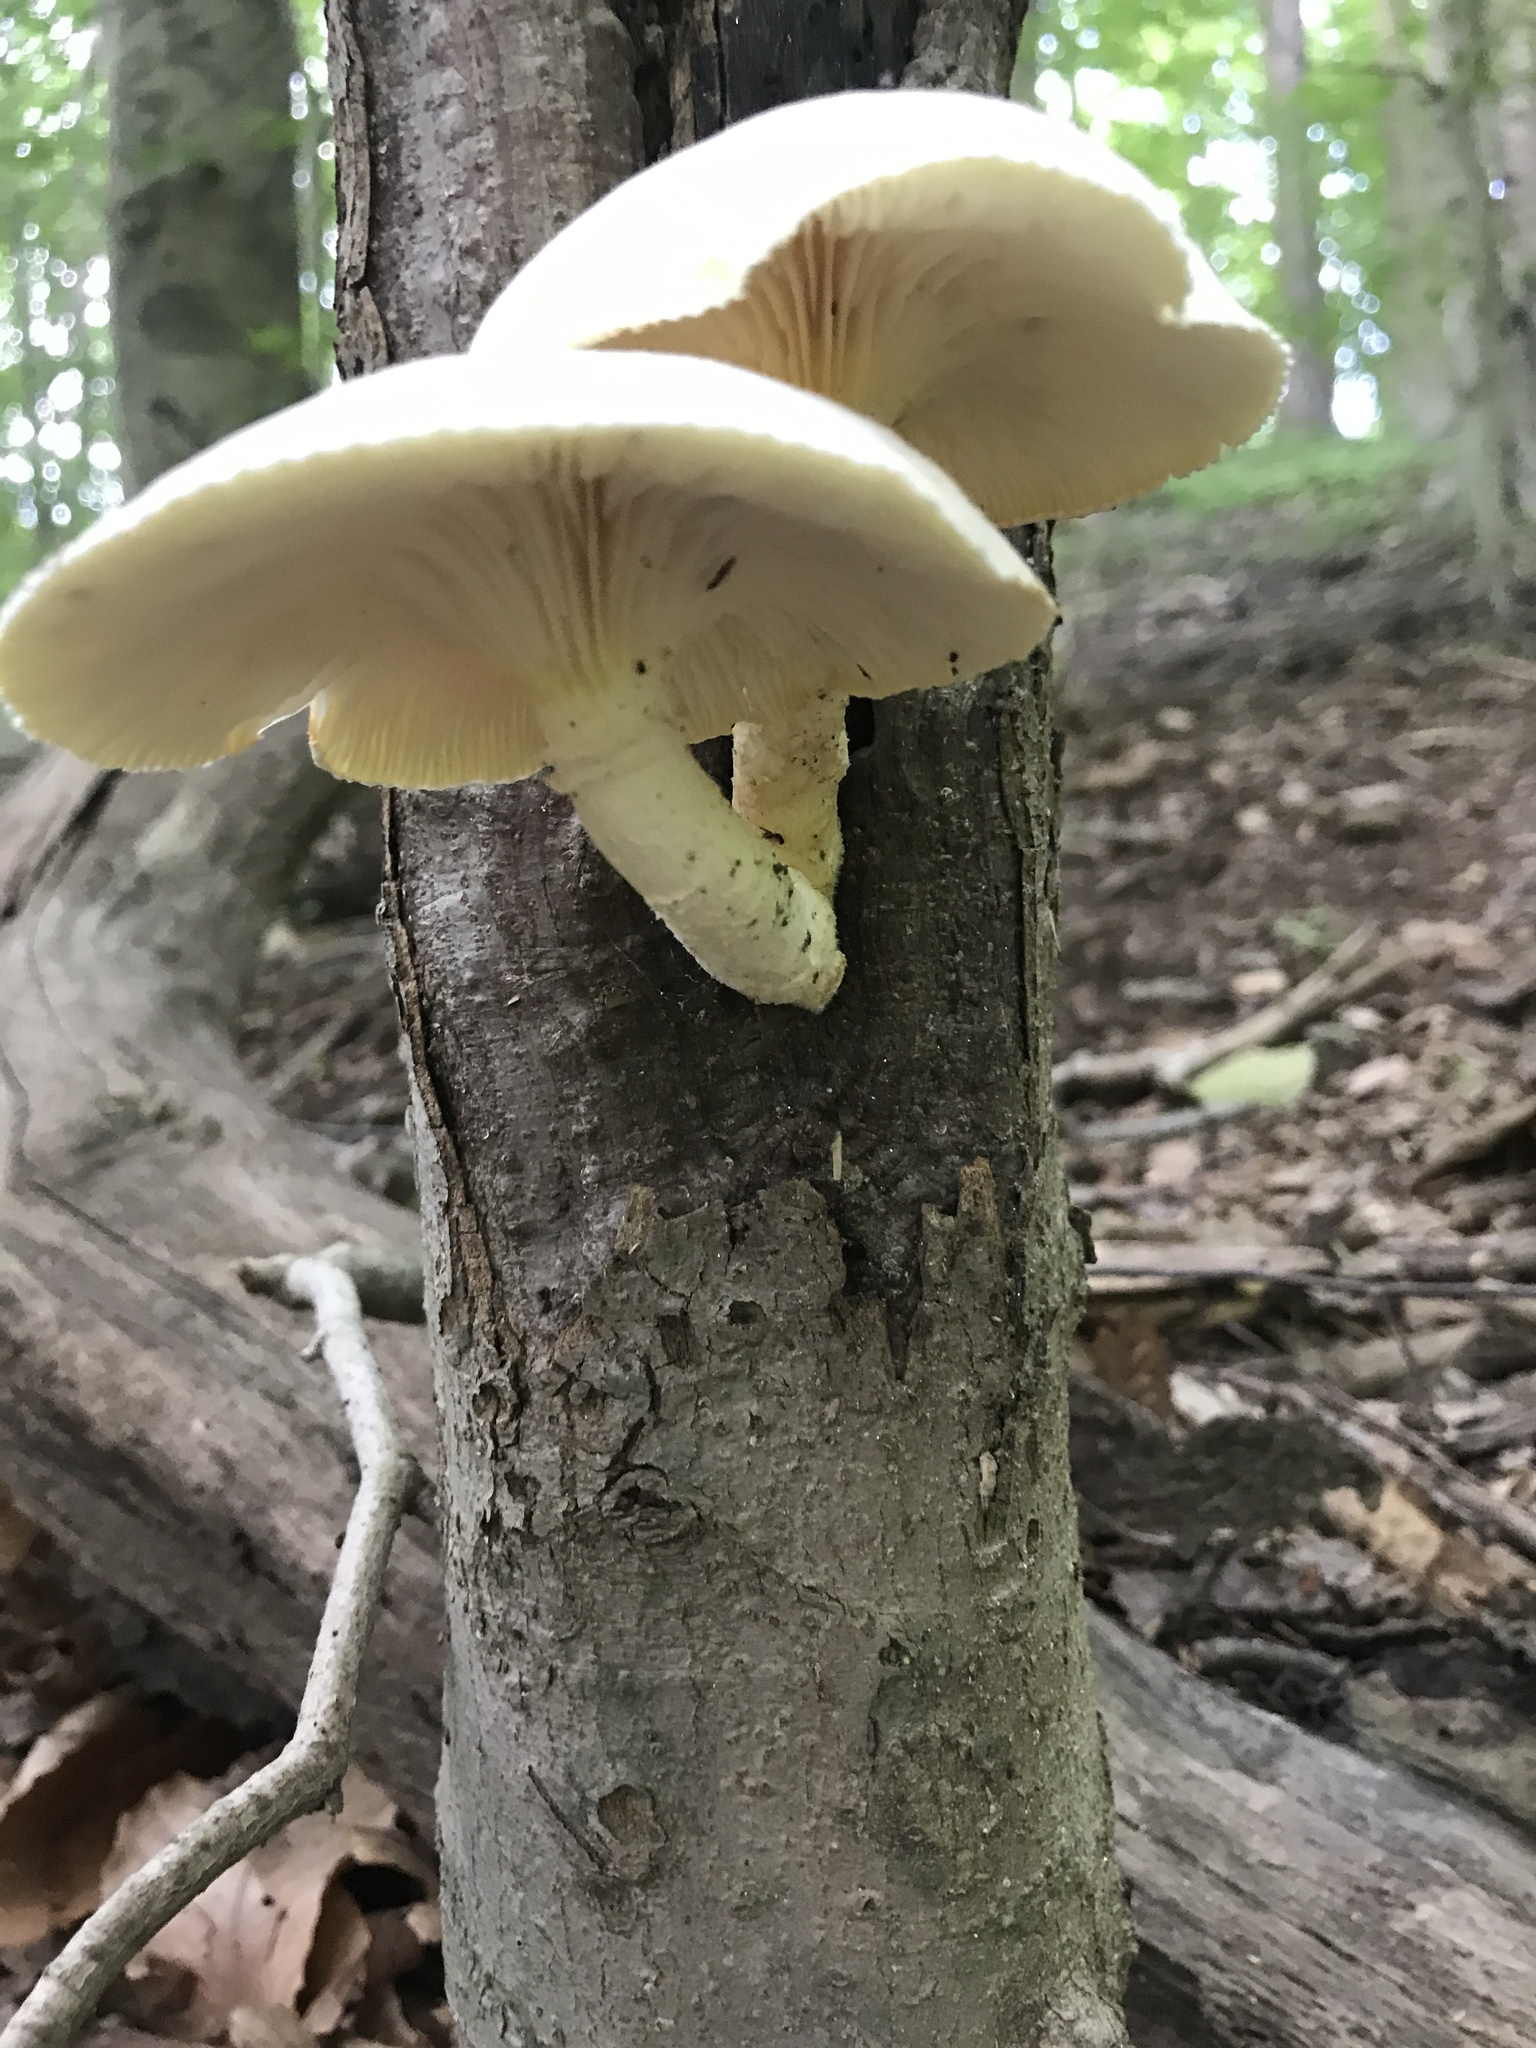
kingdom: Fungi
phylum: Basidiomycota
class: Agaricomycetes
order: Polyporales
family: Polyporaceae
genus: Lentinus
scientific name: Lentinus levis
